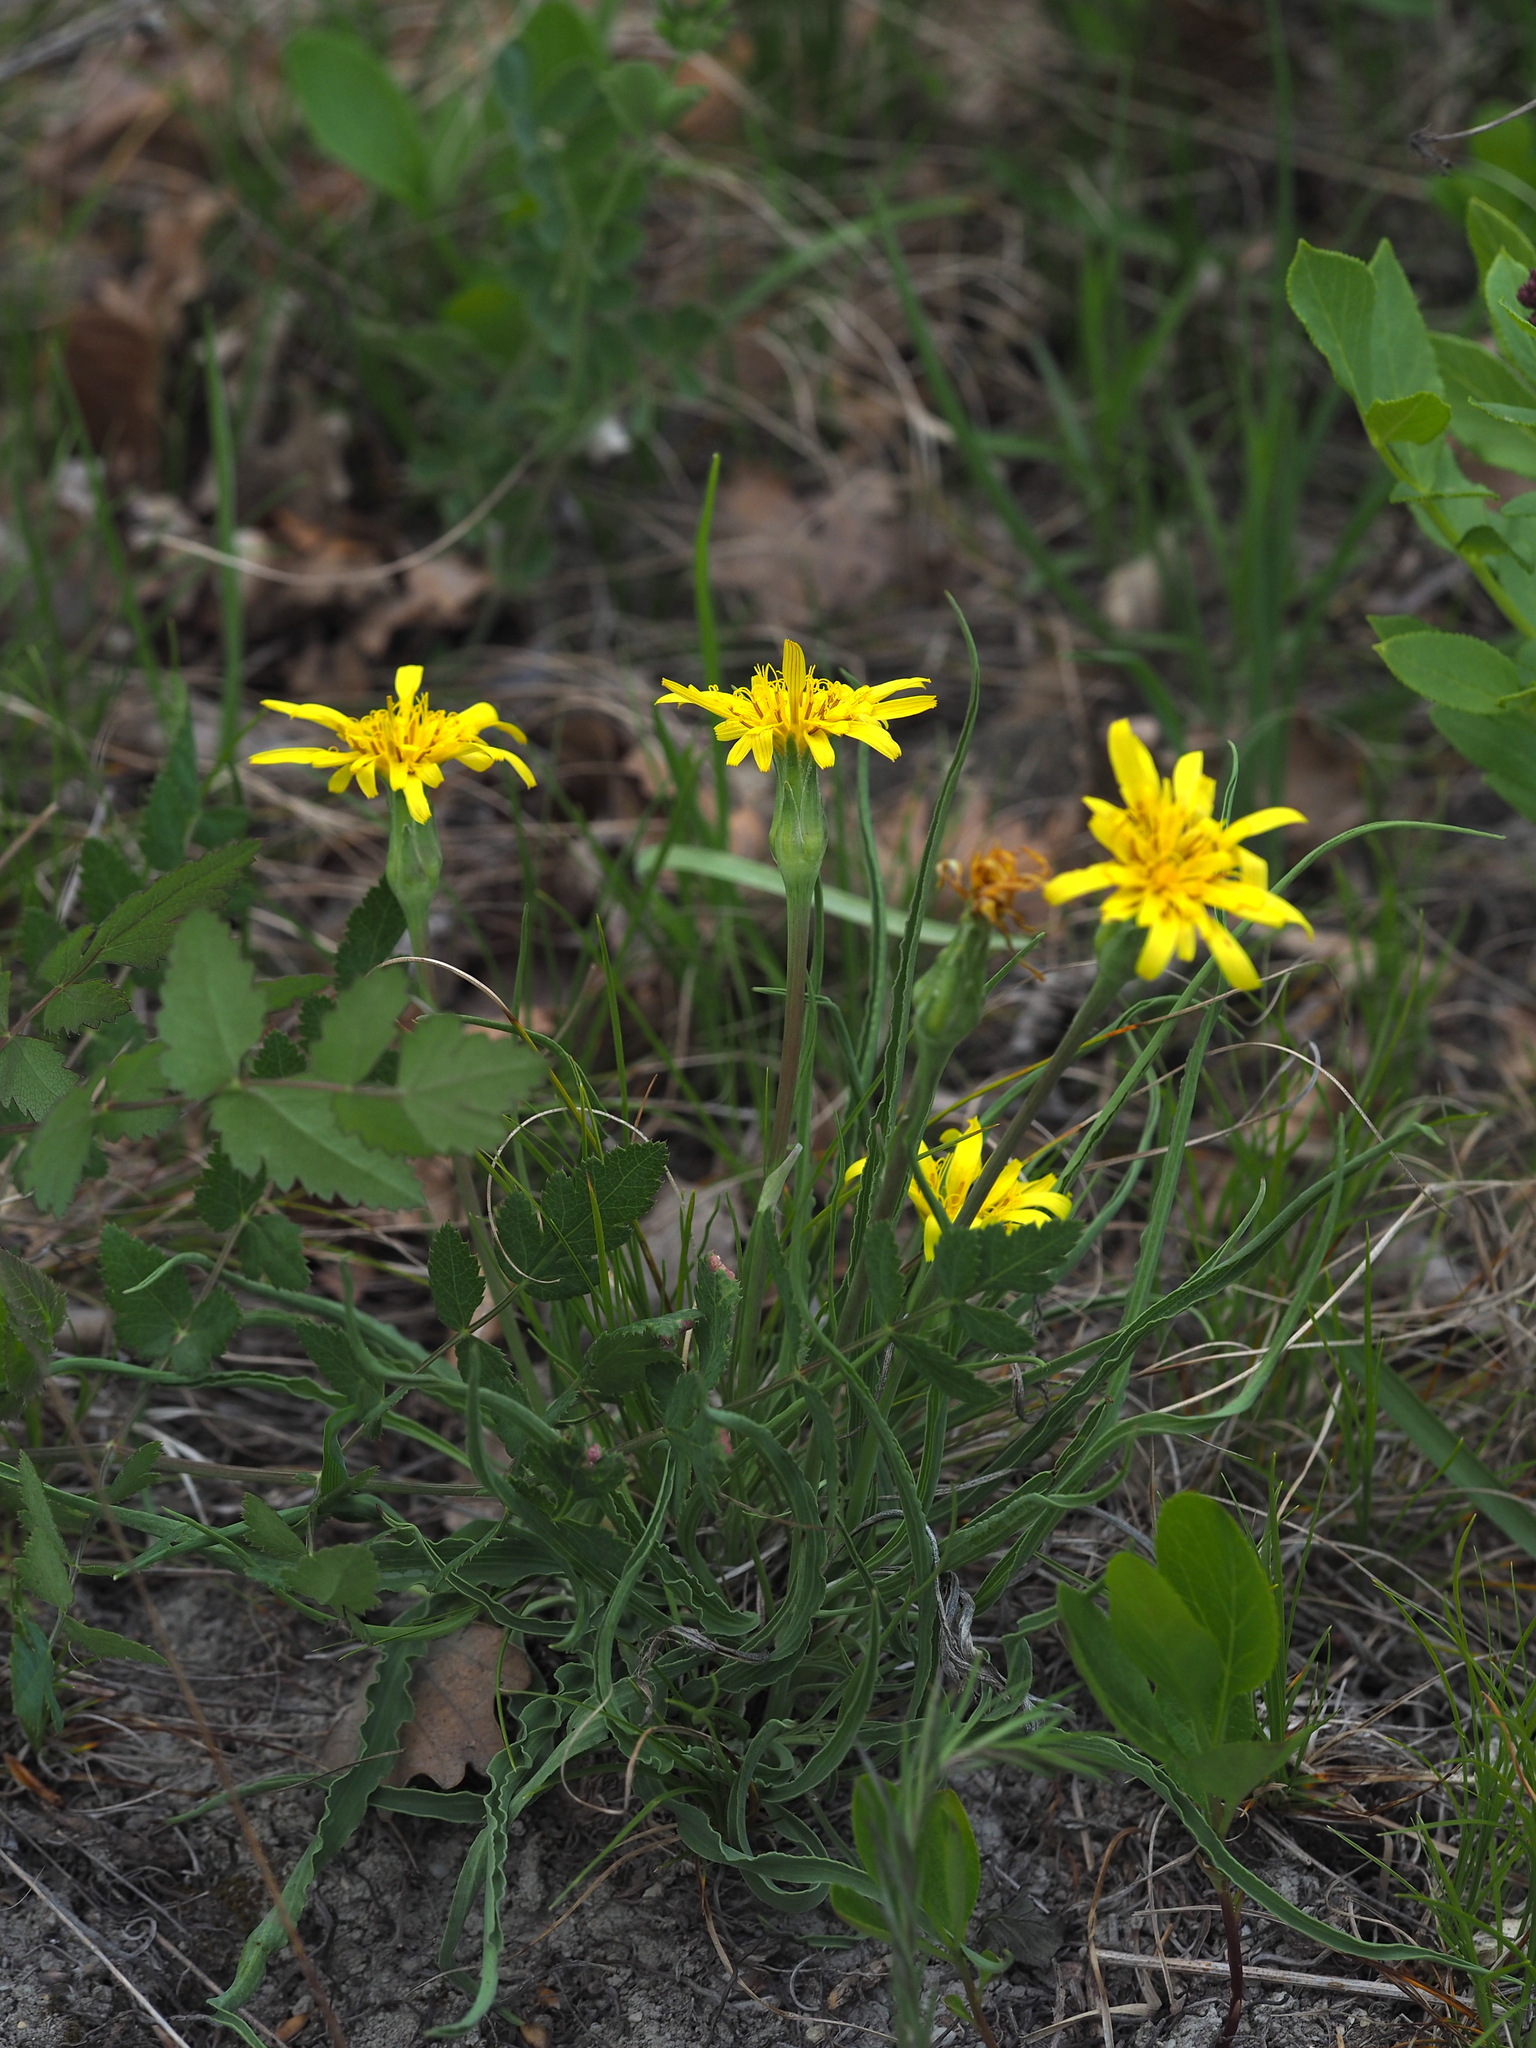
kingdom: Plantae
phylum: Tracheophyta
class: Magnoliopsida
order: Asterales
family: Asteraceae
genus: Takhtajaniantha
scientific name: Takhtajaniantha austriaca
